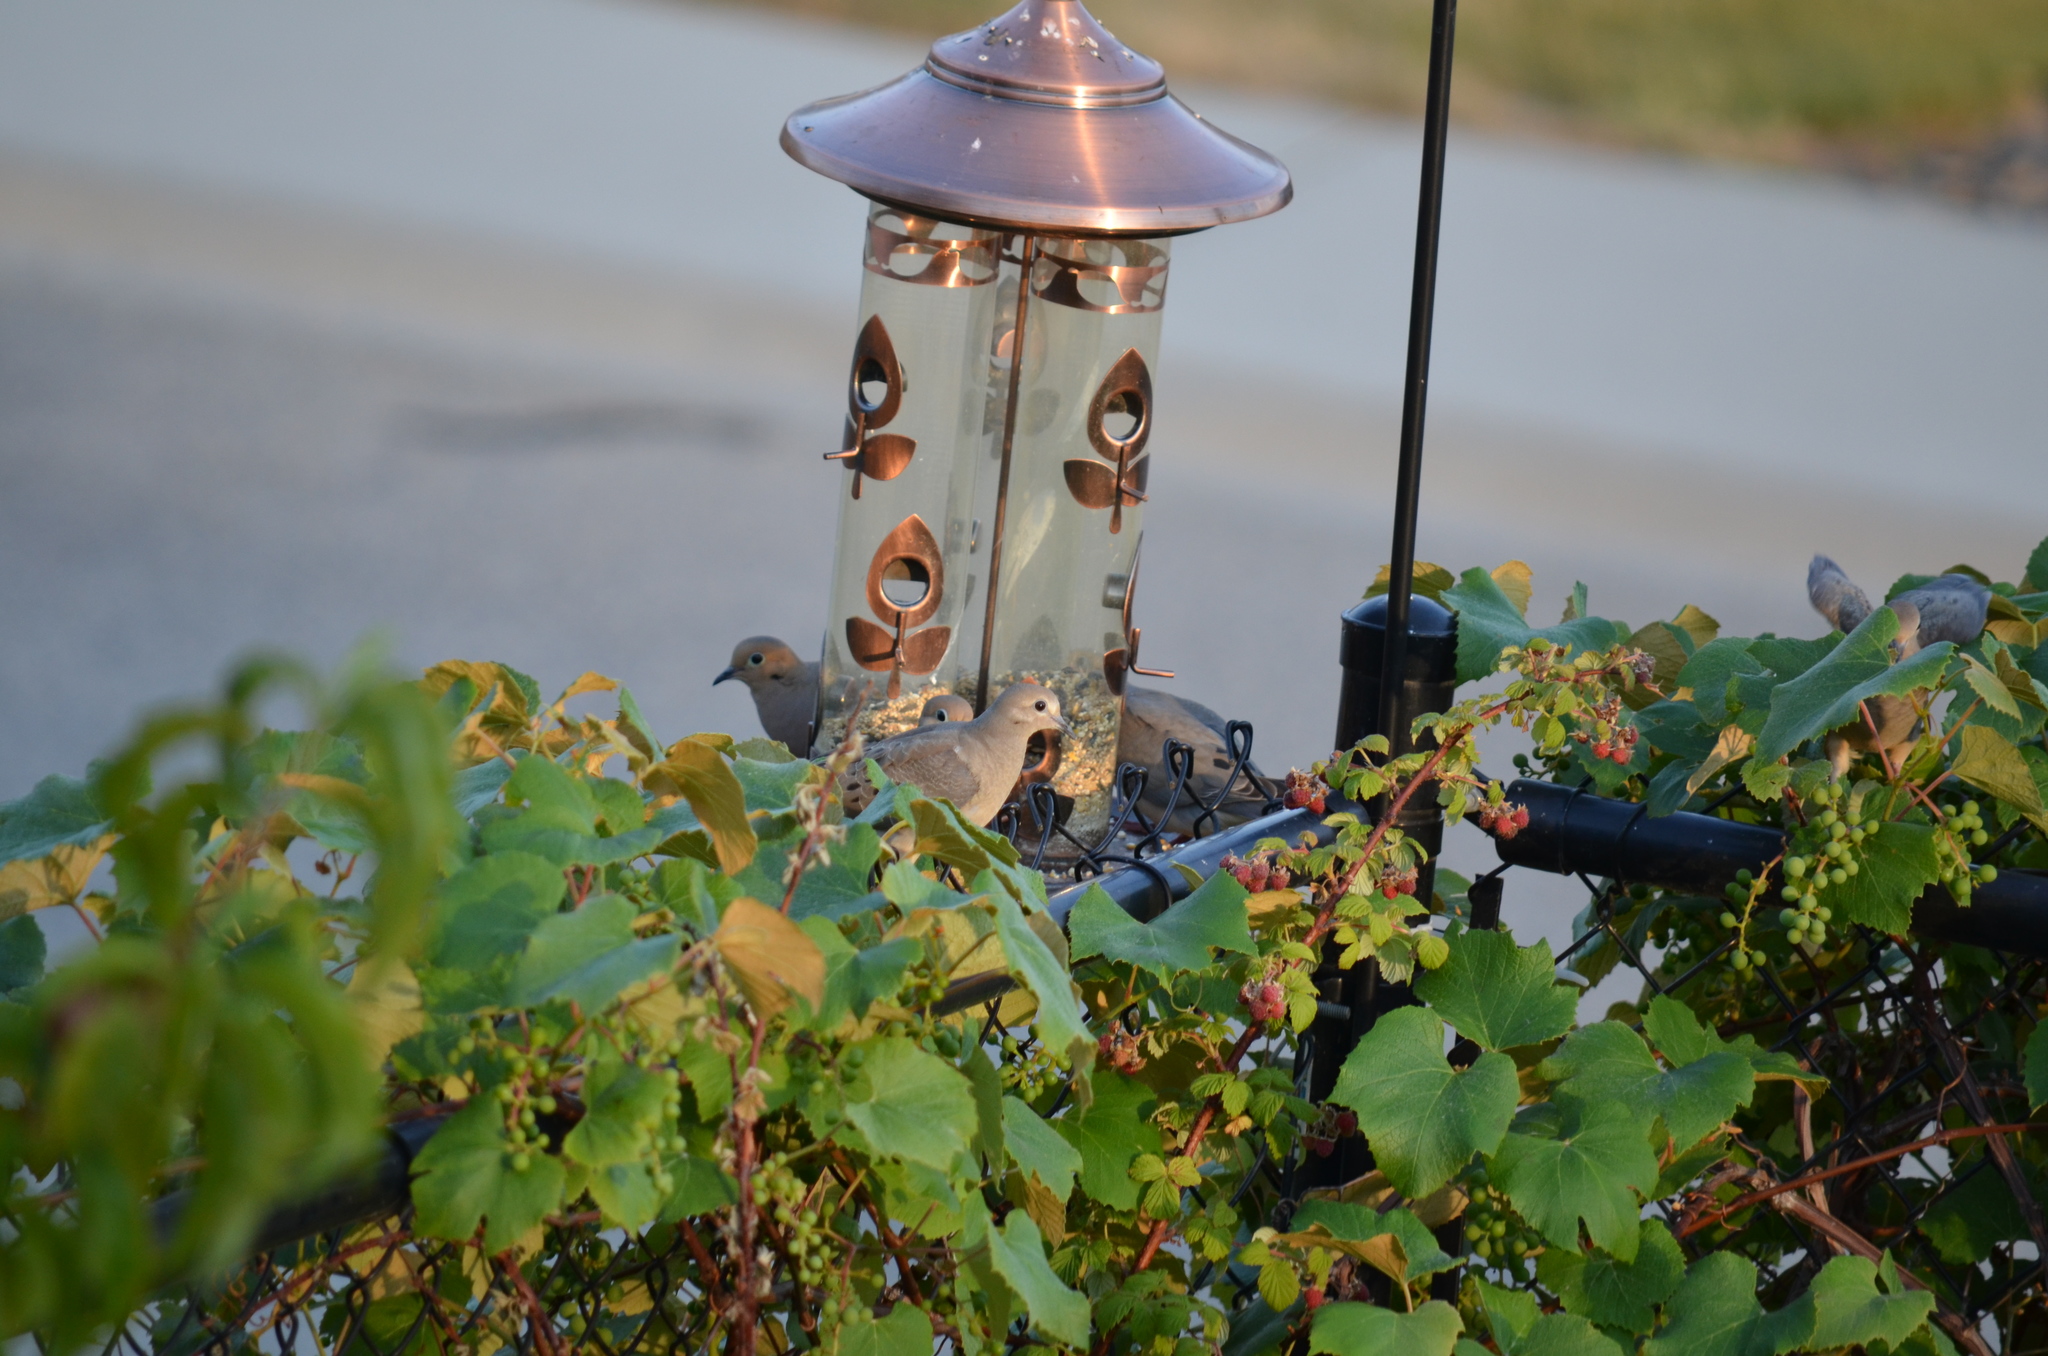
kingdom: Animalia
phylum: Chordata
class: Aves
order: Columbiformes
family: Columbidae
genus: Zenaida
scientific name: Zenaida macroura
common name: Mourning dove
